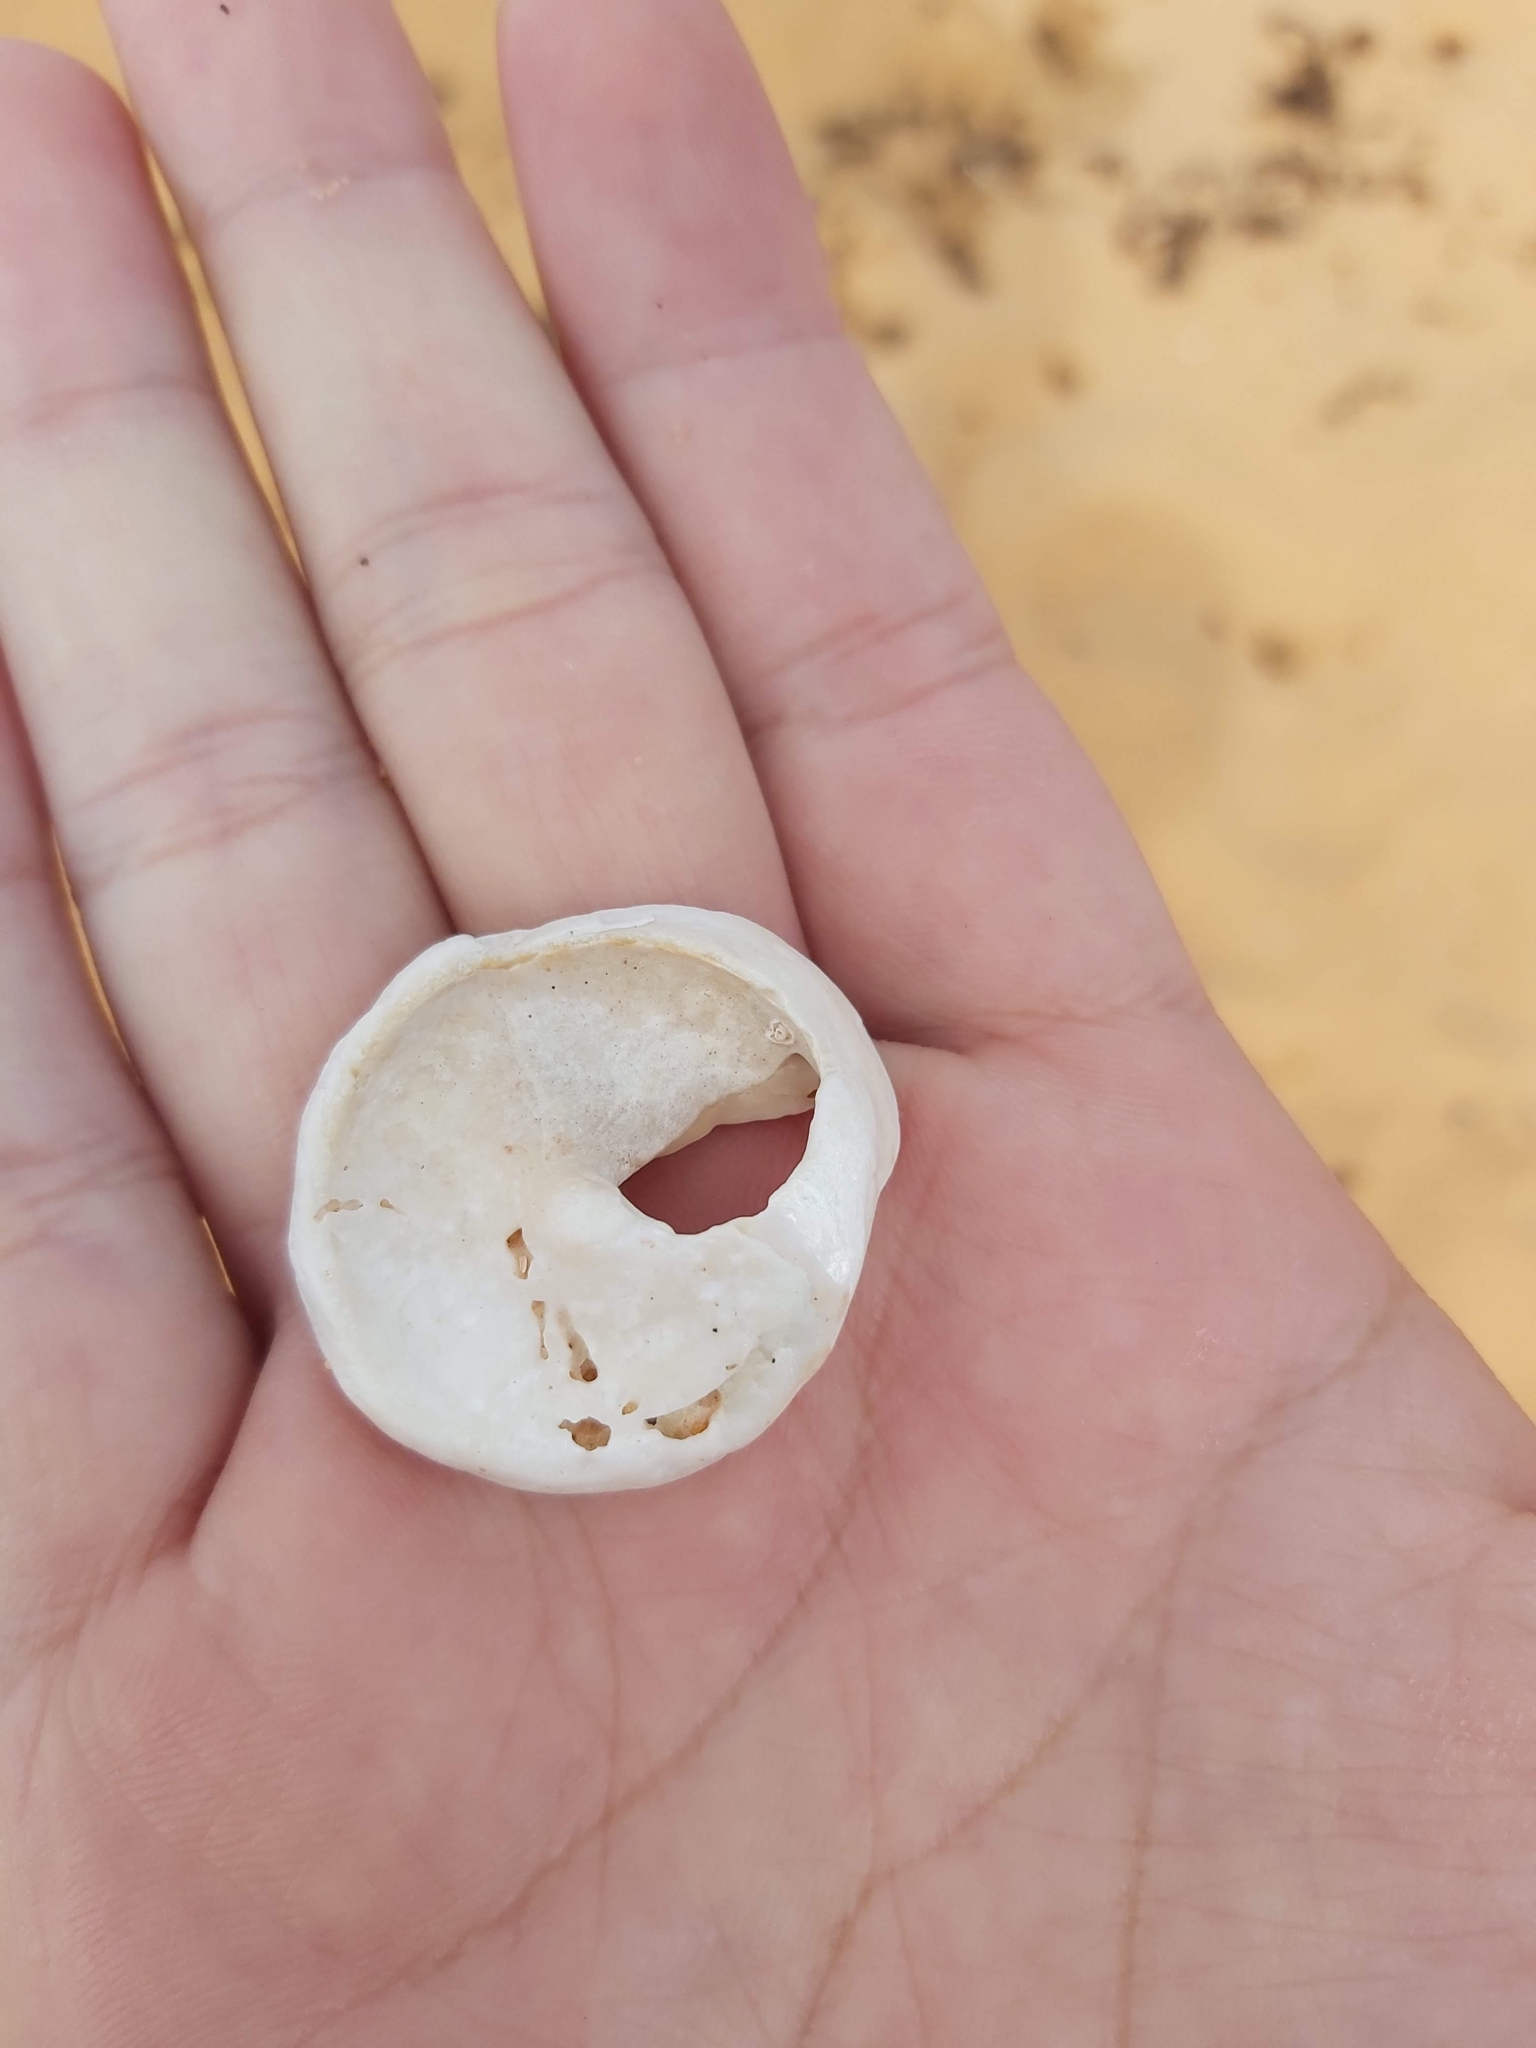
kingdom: Animalia
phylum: Mollusca
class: Gastropoda
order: Trochida
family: Turbinidae
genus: Astralium
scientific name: Astralium tentoriiforme
